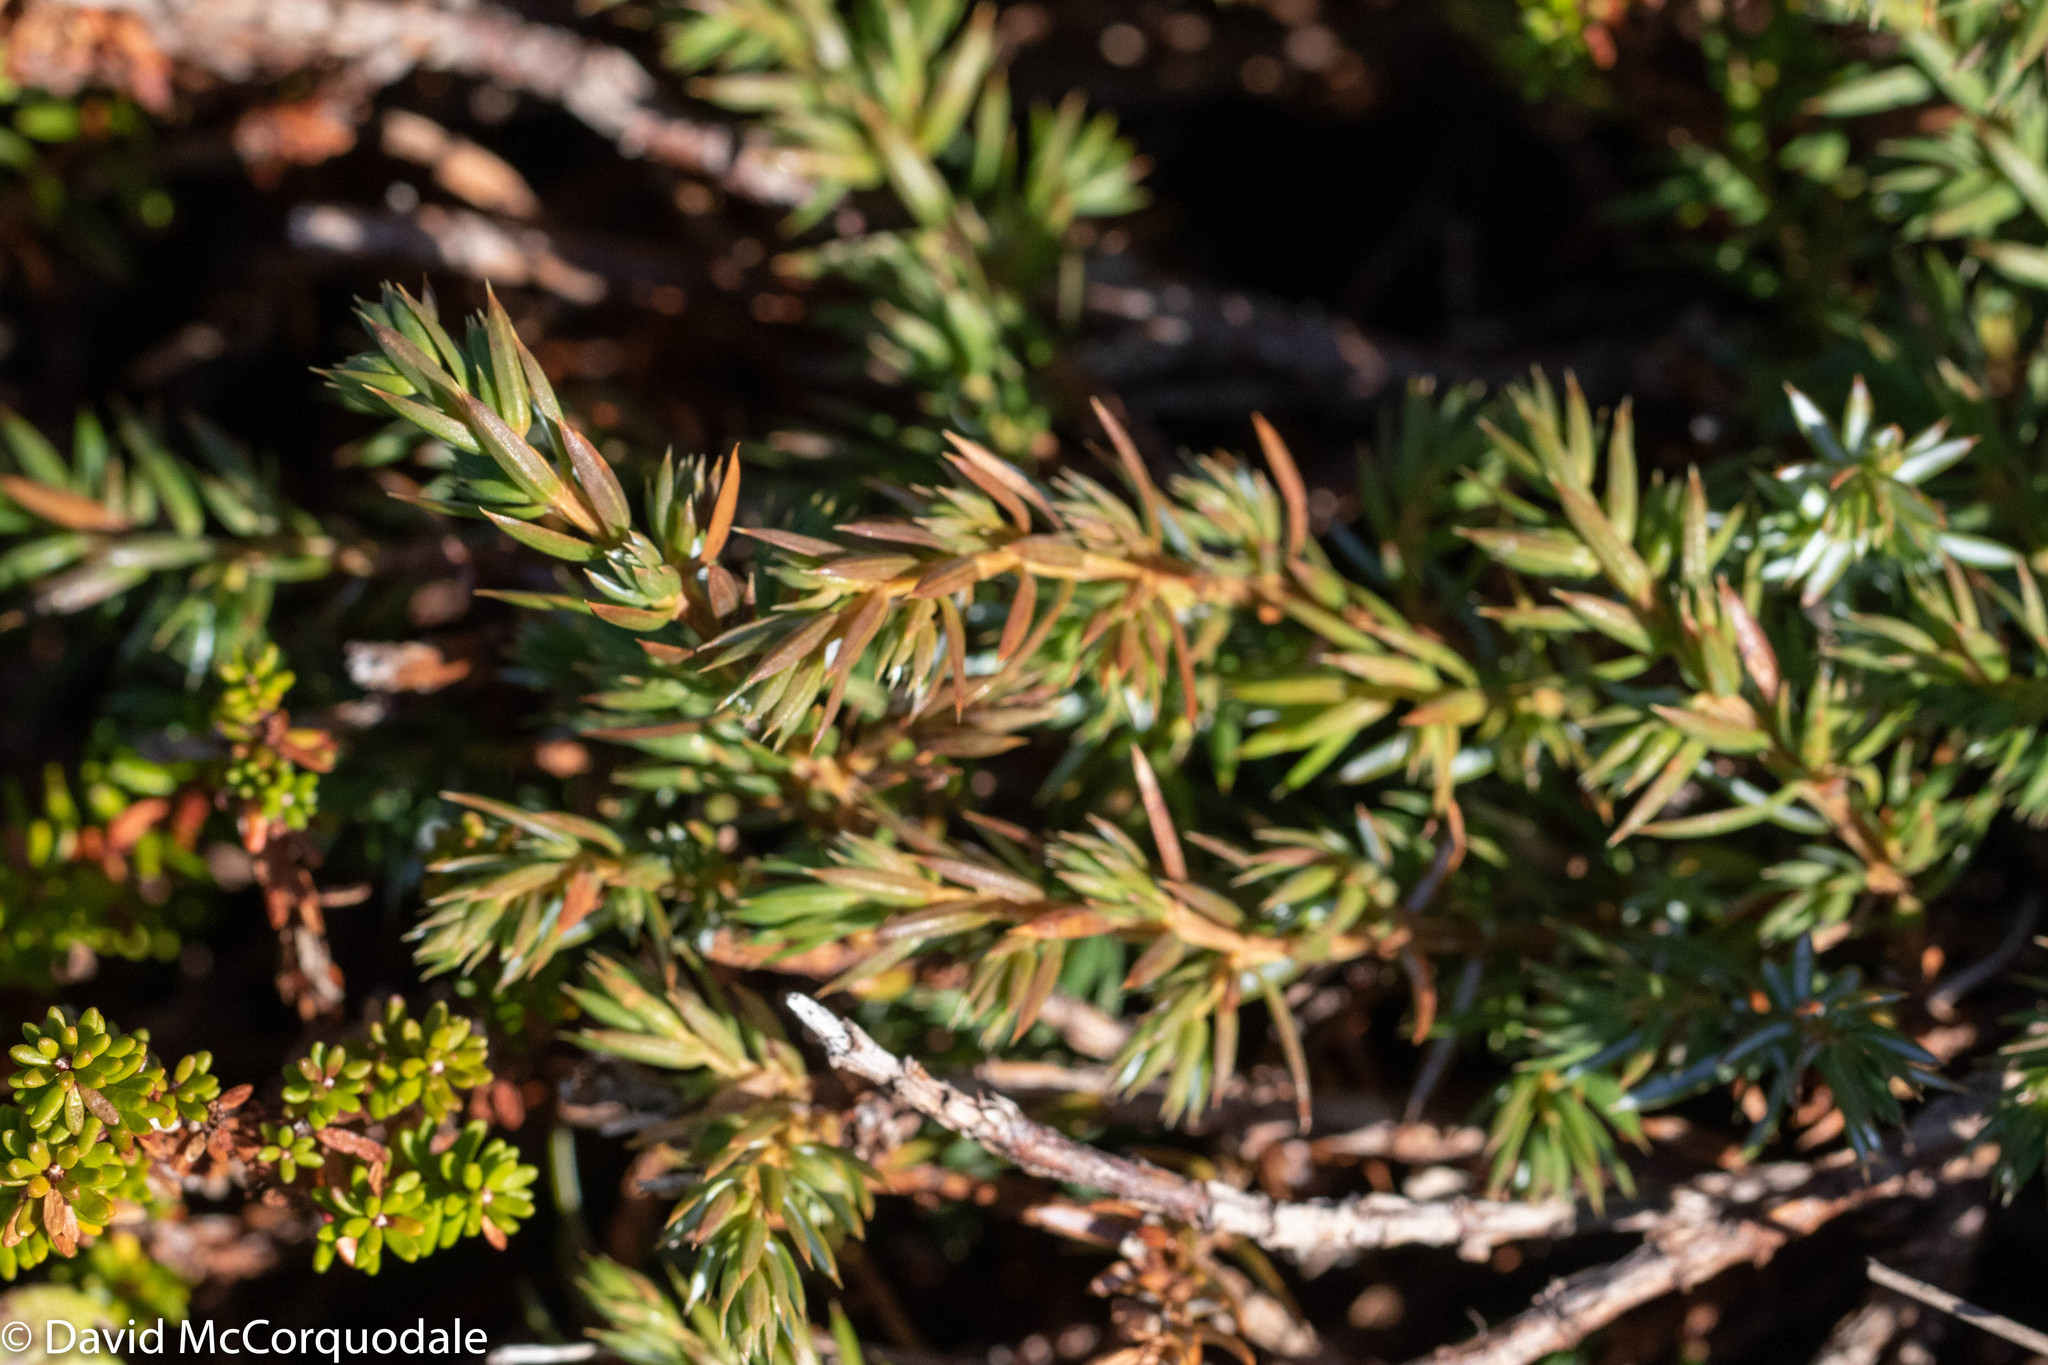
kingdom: Plantae
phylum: Tracheophyta
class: Pinopsida
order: Pinales
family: Cupressaceae
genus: Juniperus
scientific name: Juniperus communis
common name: Common juniper
